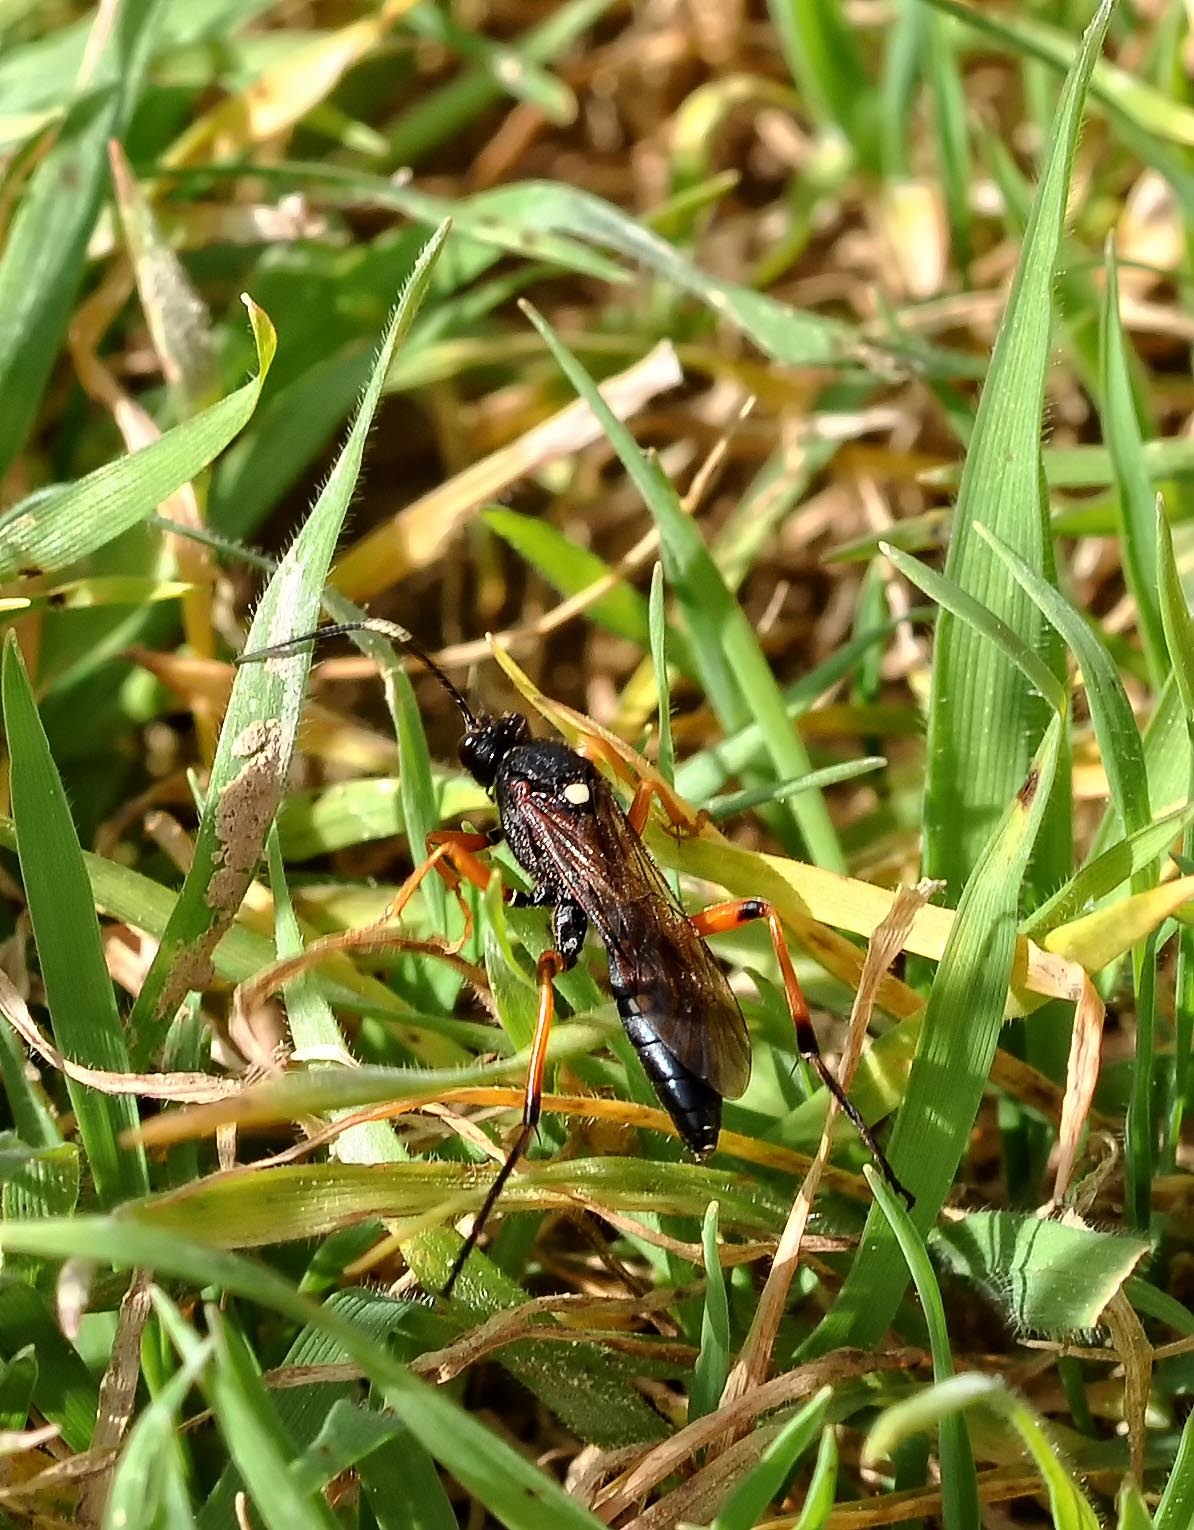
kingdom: Animalia
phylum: Arthropoda
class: Insecta
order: Hymenoptera
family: Ichneumonidae
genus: Diphyus
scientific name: Diphyus quadripunctorius
